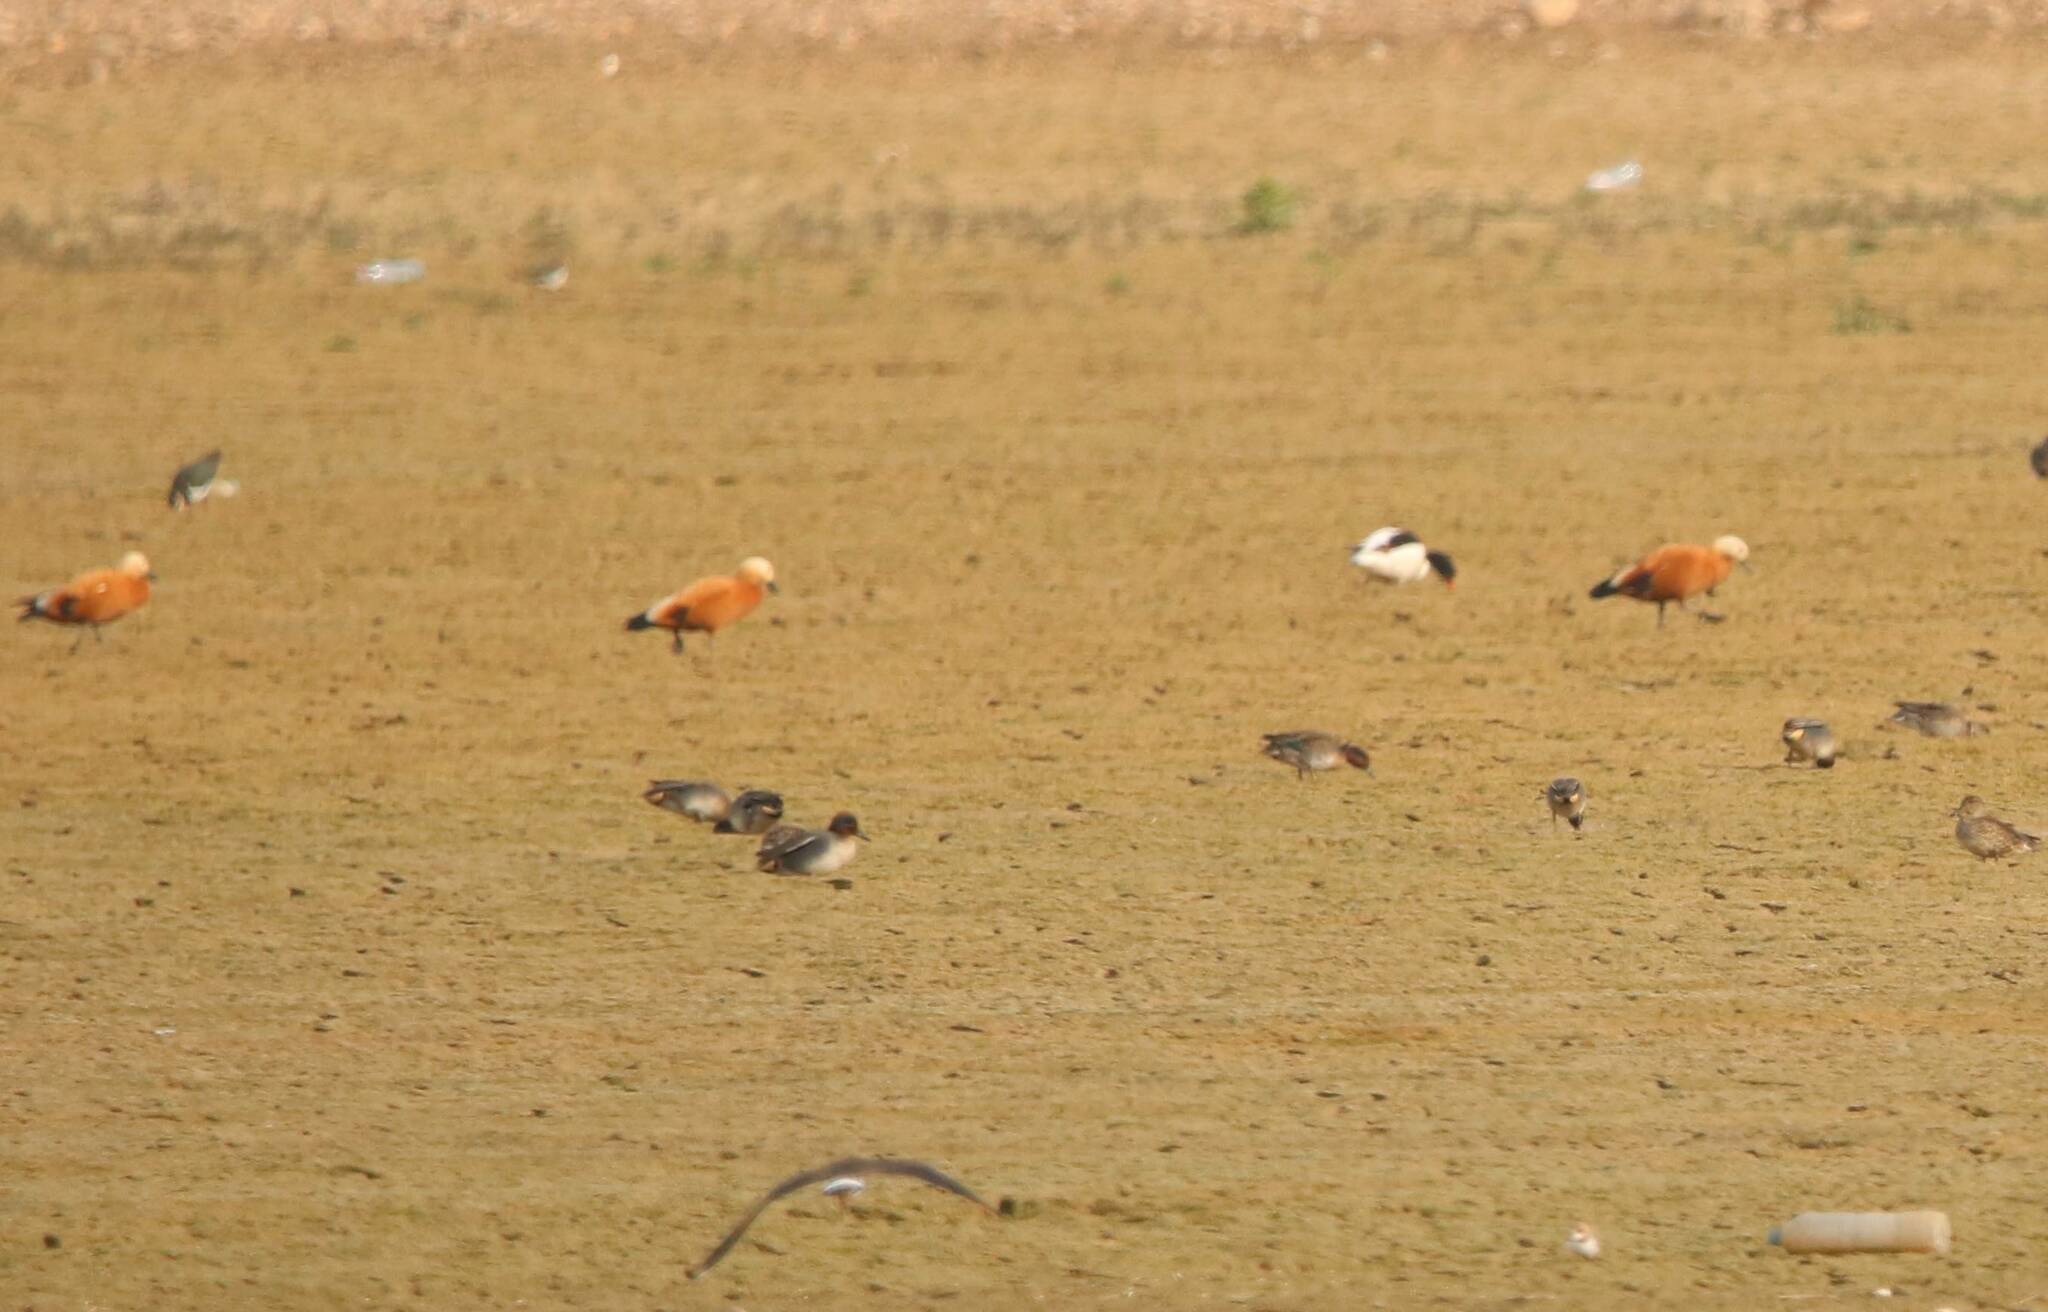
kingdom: Animalia
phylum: Chordata
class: Aves
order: Anseriformes
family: Anatidae
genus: Tadorna
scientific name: Tadorna ferruginea
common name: Ruddy shelduck
